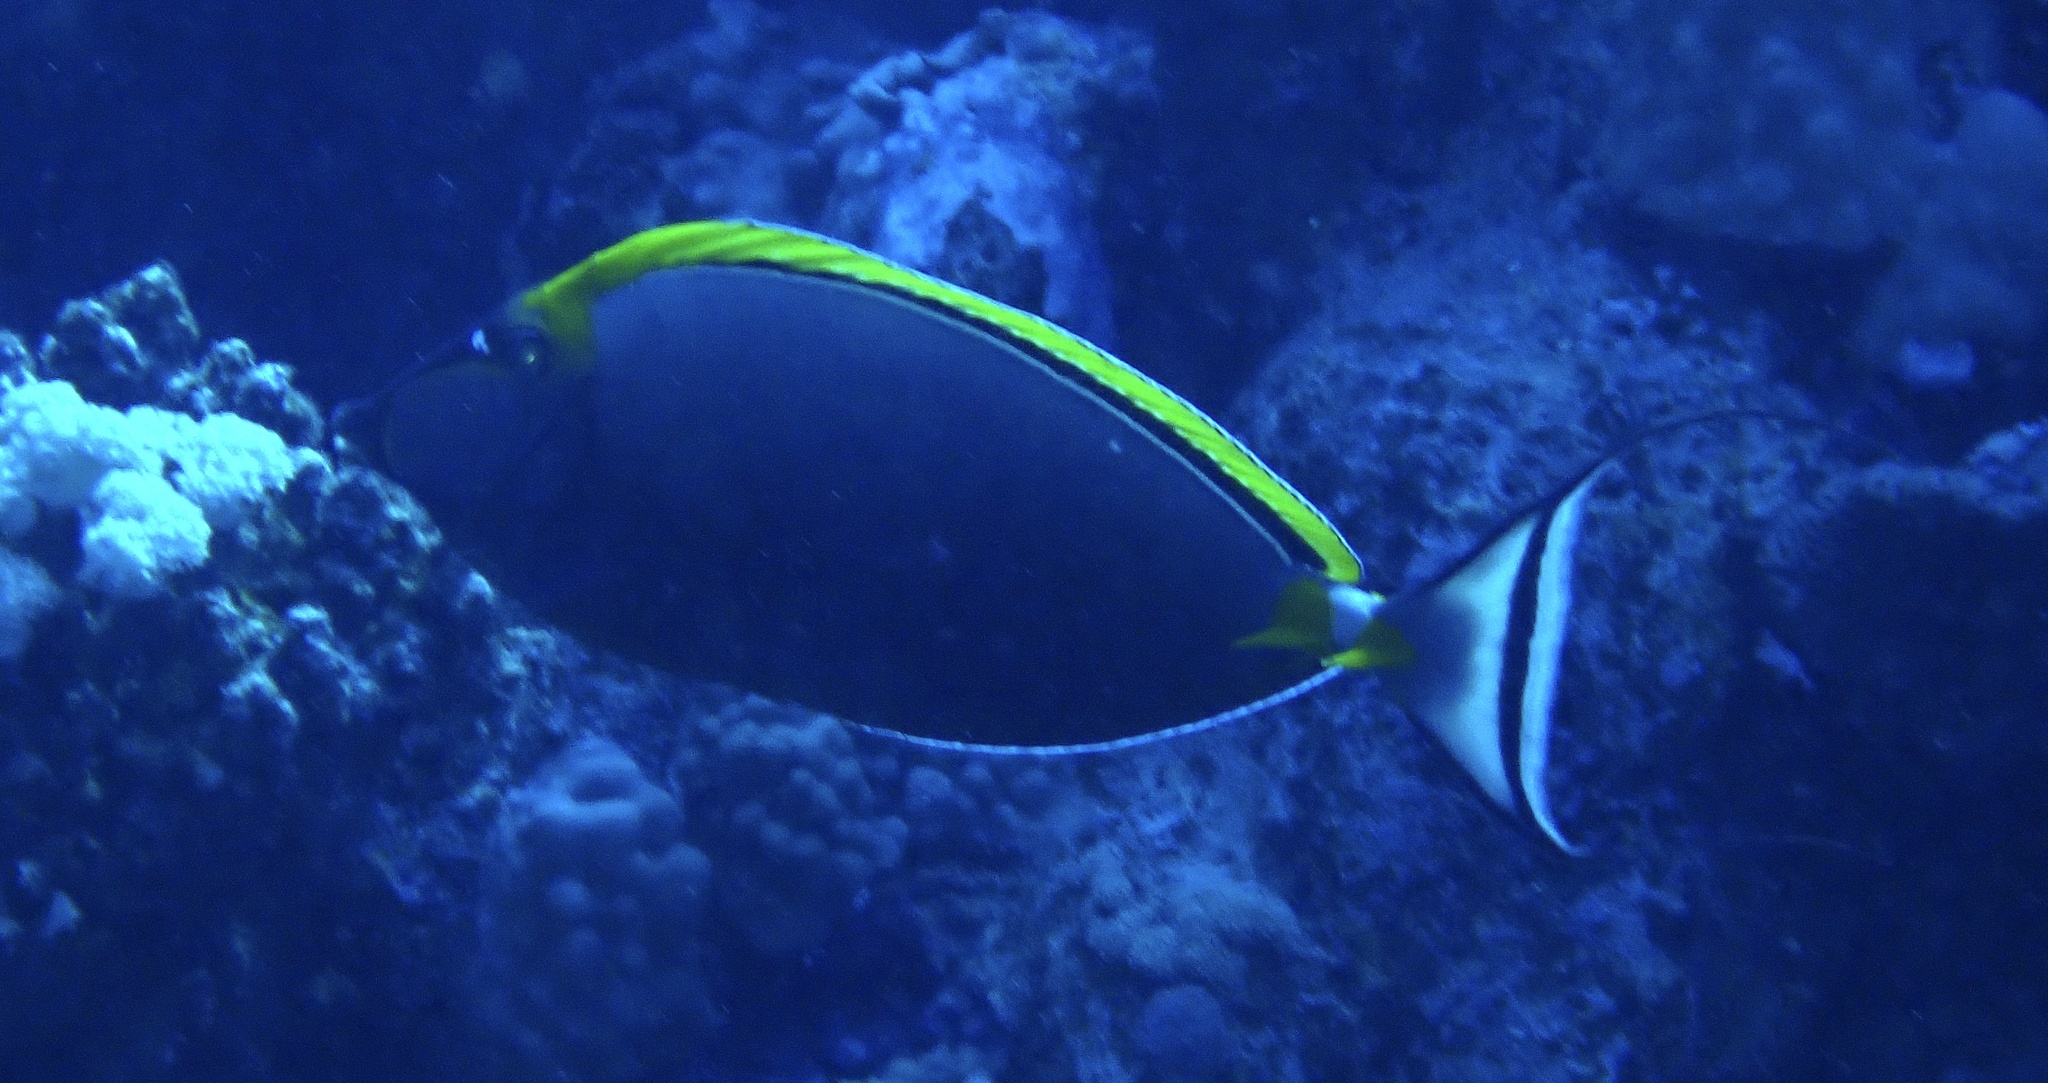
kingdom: Animalia
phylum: Chordata
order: Perciformes
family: Acanthuridae
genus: Naso
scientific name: Naso elegans
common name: Orangespine unicornfish
